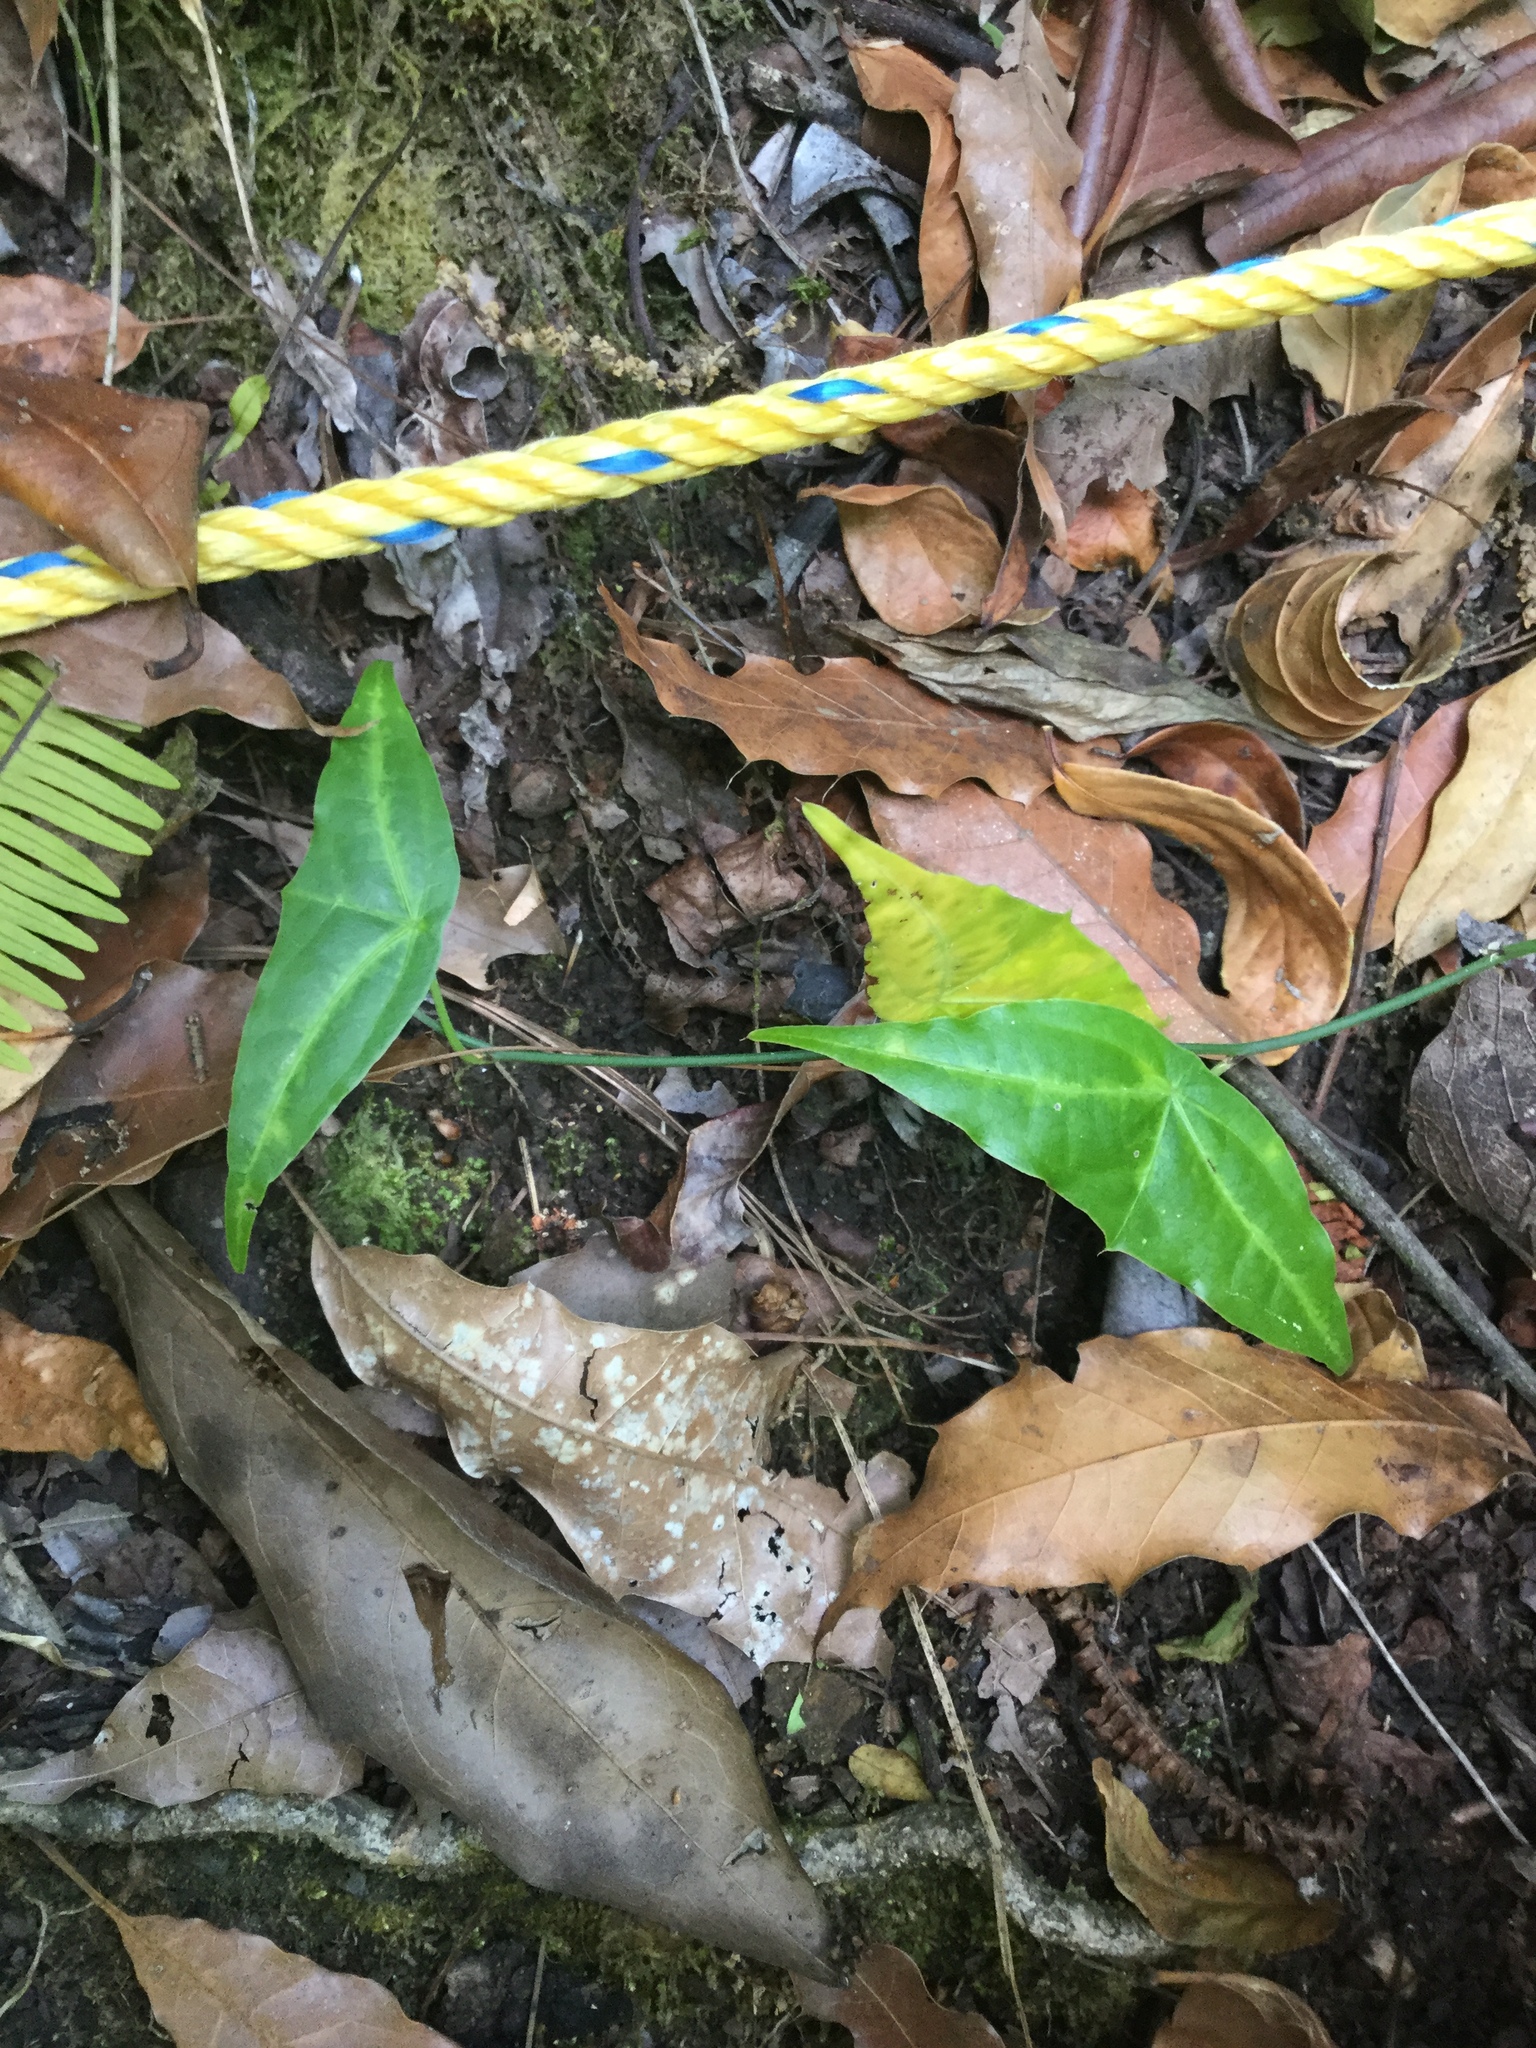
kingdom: Plantae
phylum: Tracheophyta
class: Magnoliopsida
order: Malpighiales
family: Passifloraceae
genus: Passiflora
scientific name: Passiflora mcvaughiana
